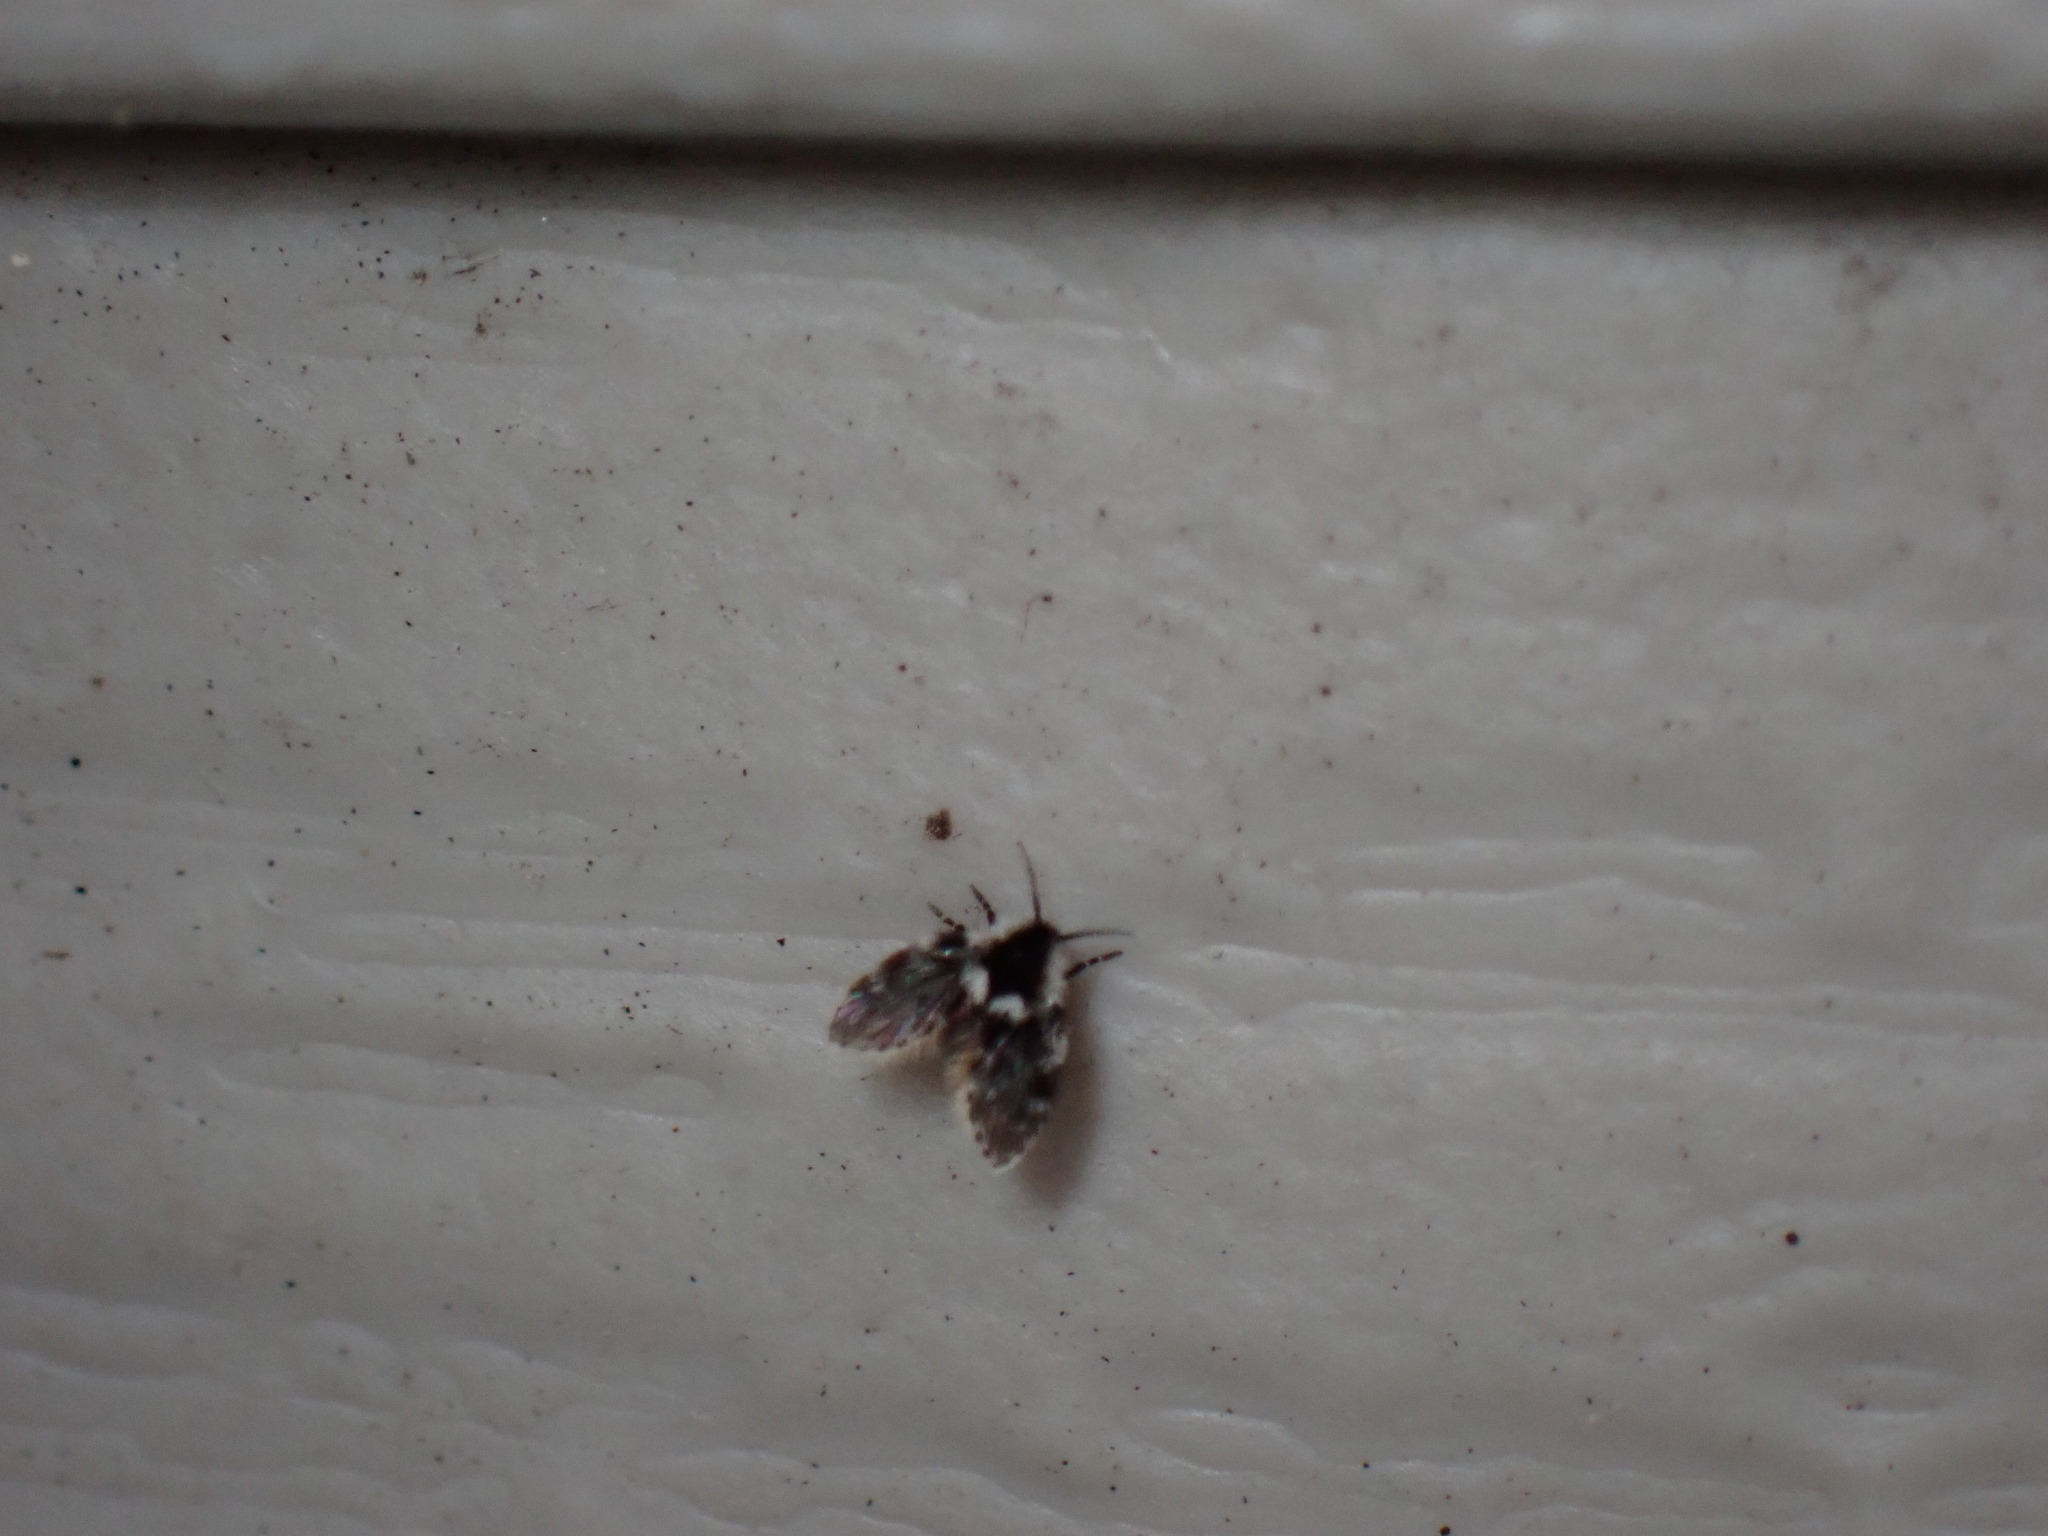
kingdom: Animalia
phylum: Arthropoda
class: Insecta
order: Diptera
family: Psychodidae
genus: Lepiseodina
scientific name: Lepiseodina
